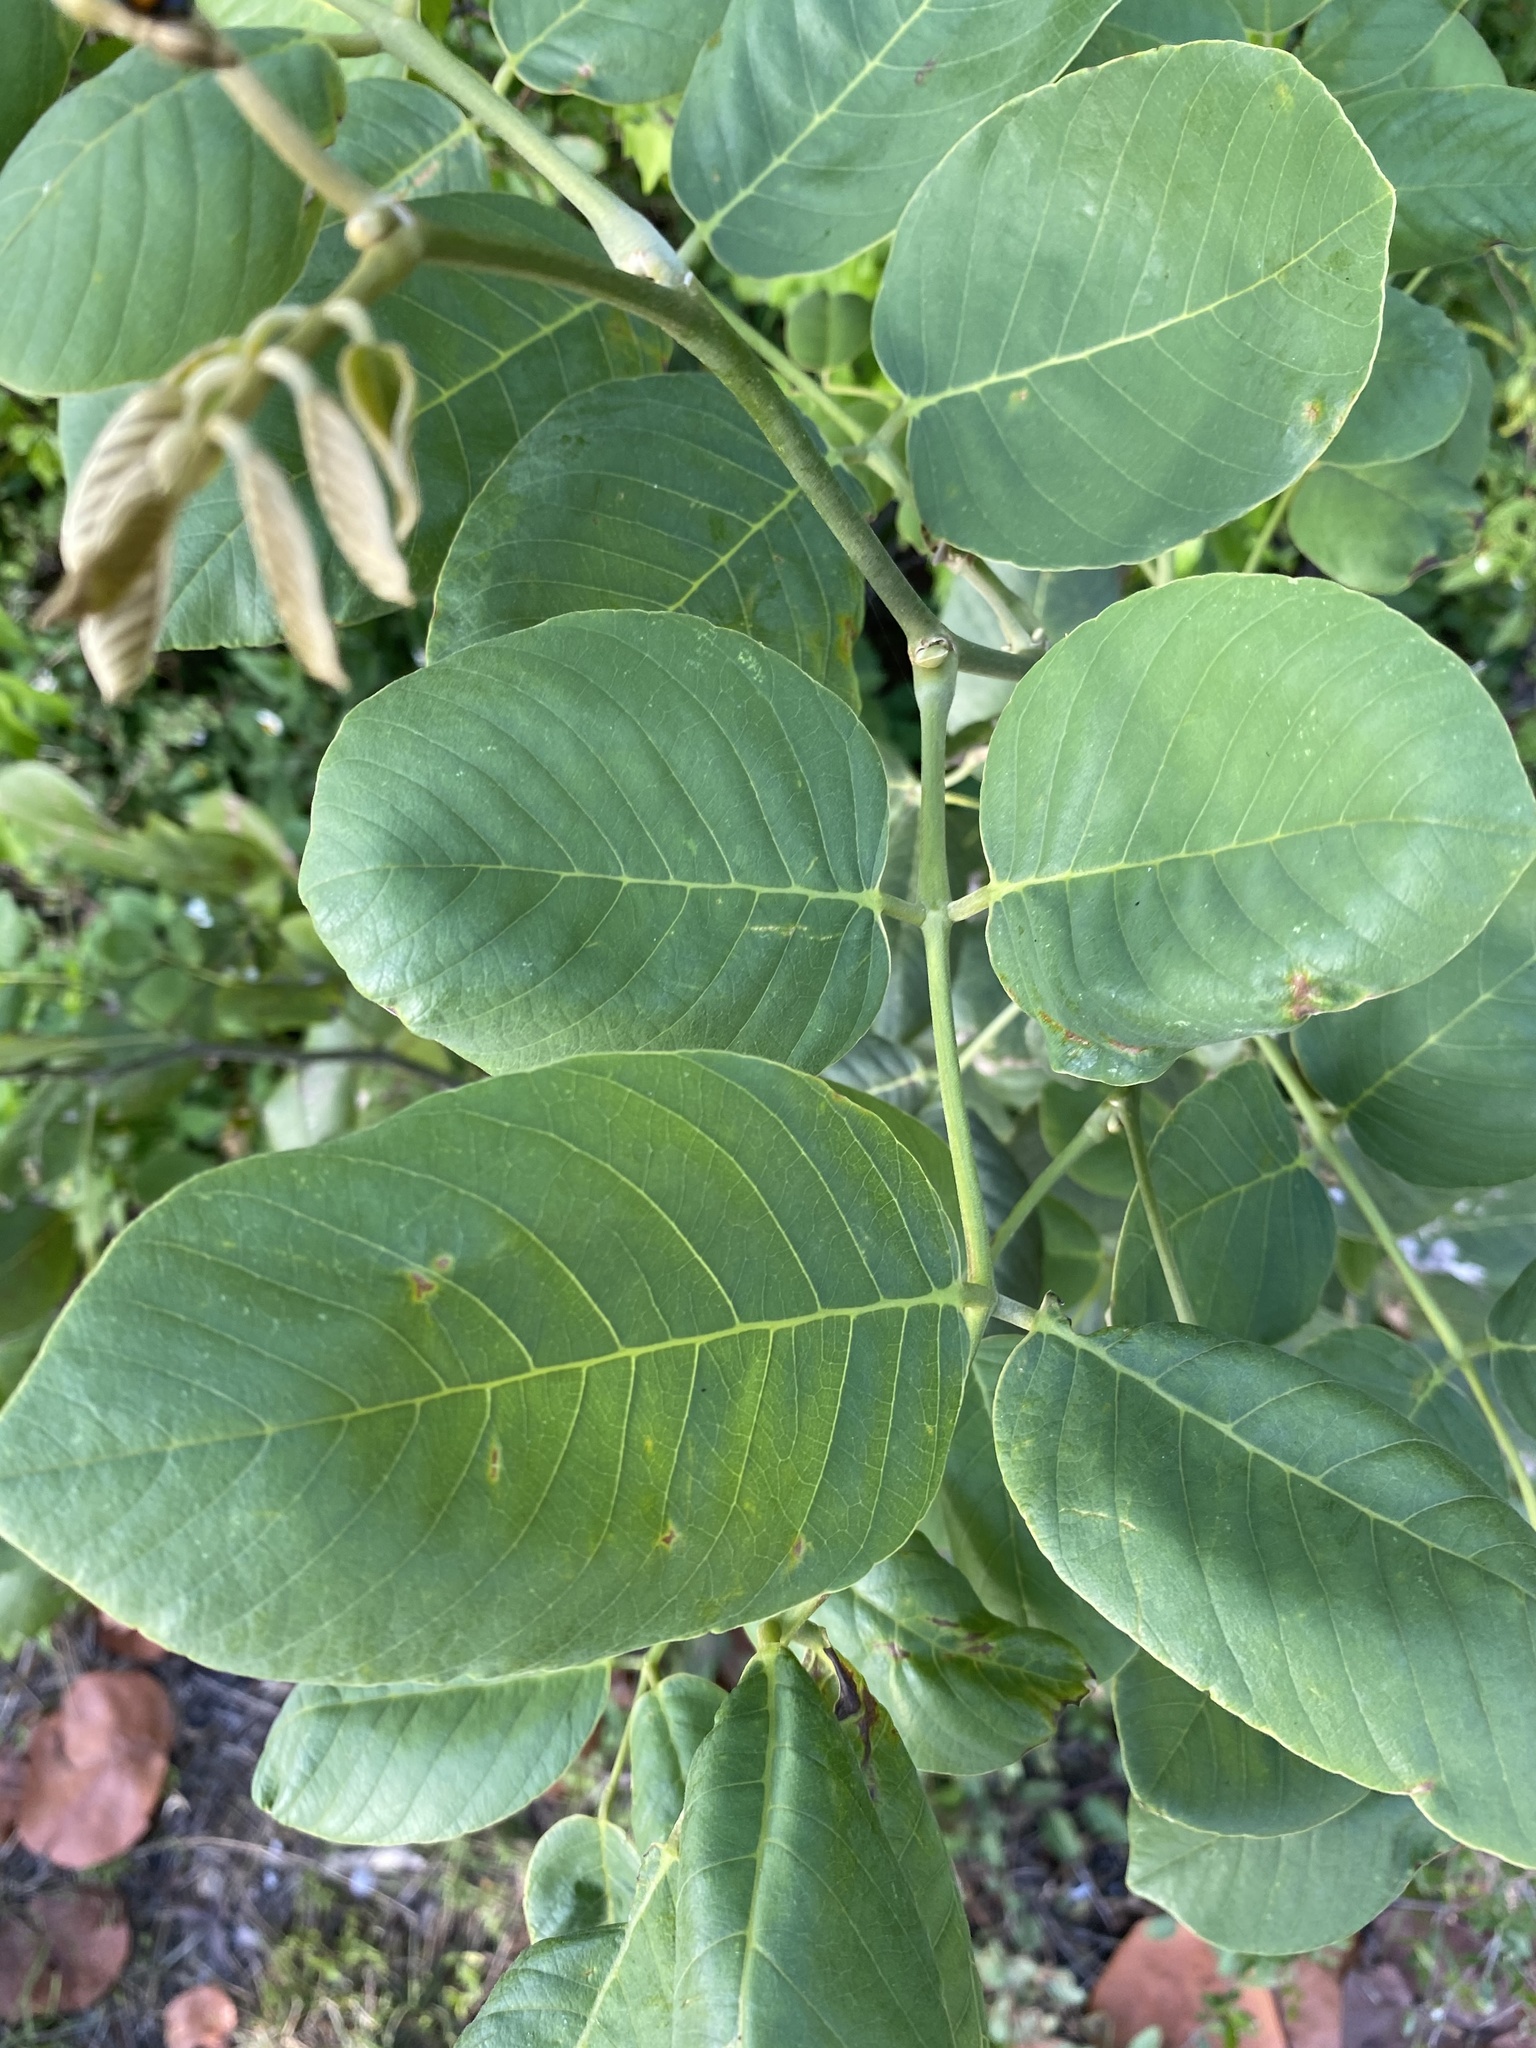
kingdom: Plantae
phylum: Tracheophyta
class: Magnoliopsida
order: Fabales
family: Fabaceae
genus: Piscidia
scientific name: Piscidia piscipula
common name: Florida fishpoison tree
